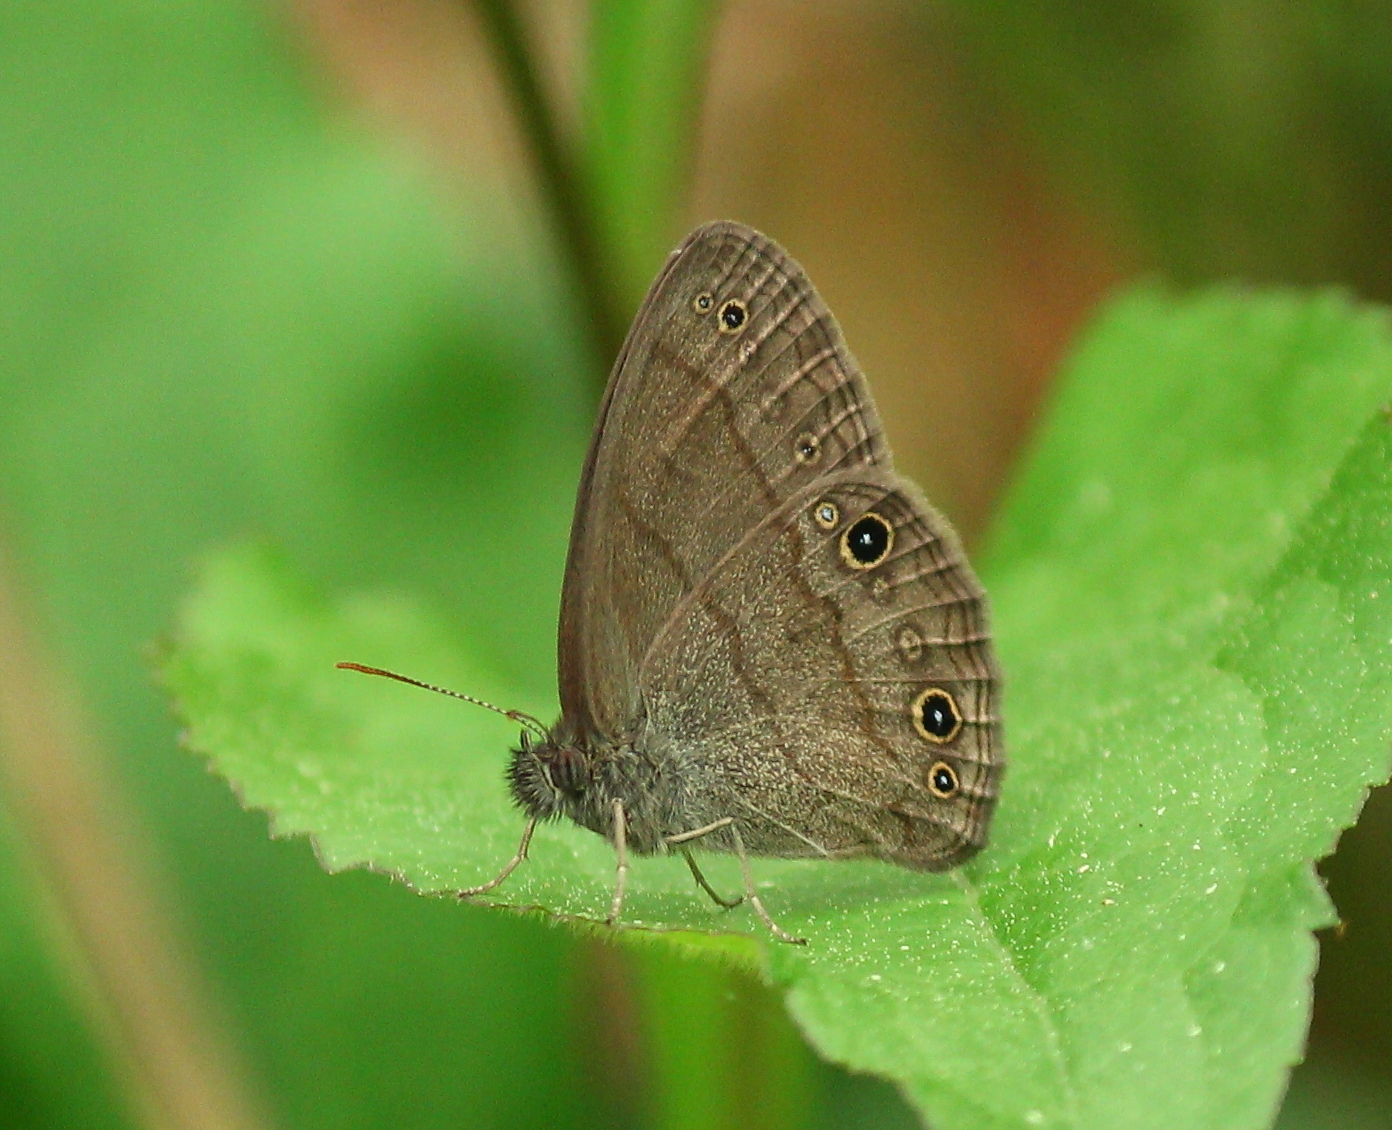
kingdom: Animalia
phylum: Arthropoda
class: Insecta
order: Lepidoptera
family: Nymphalidae
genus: Hermeuptychia
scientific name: Hermeuptychia hermes
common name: Hermes satyr
